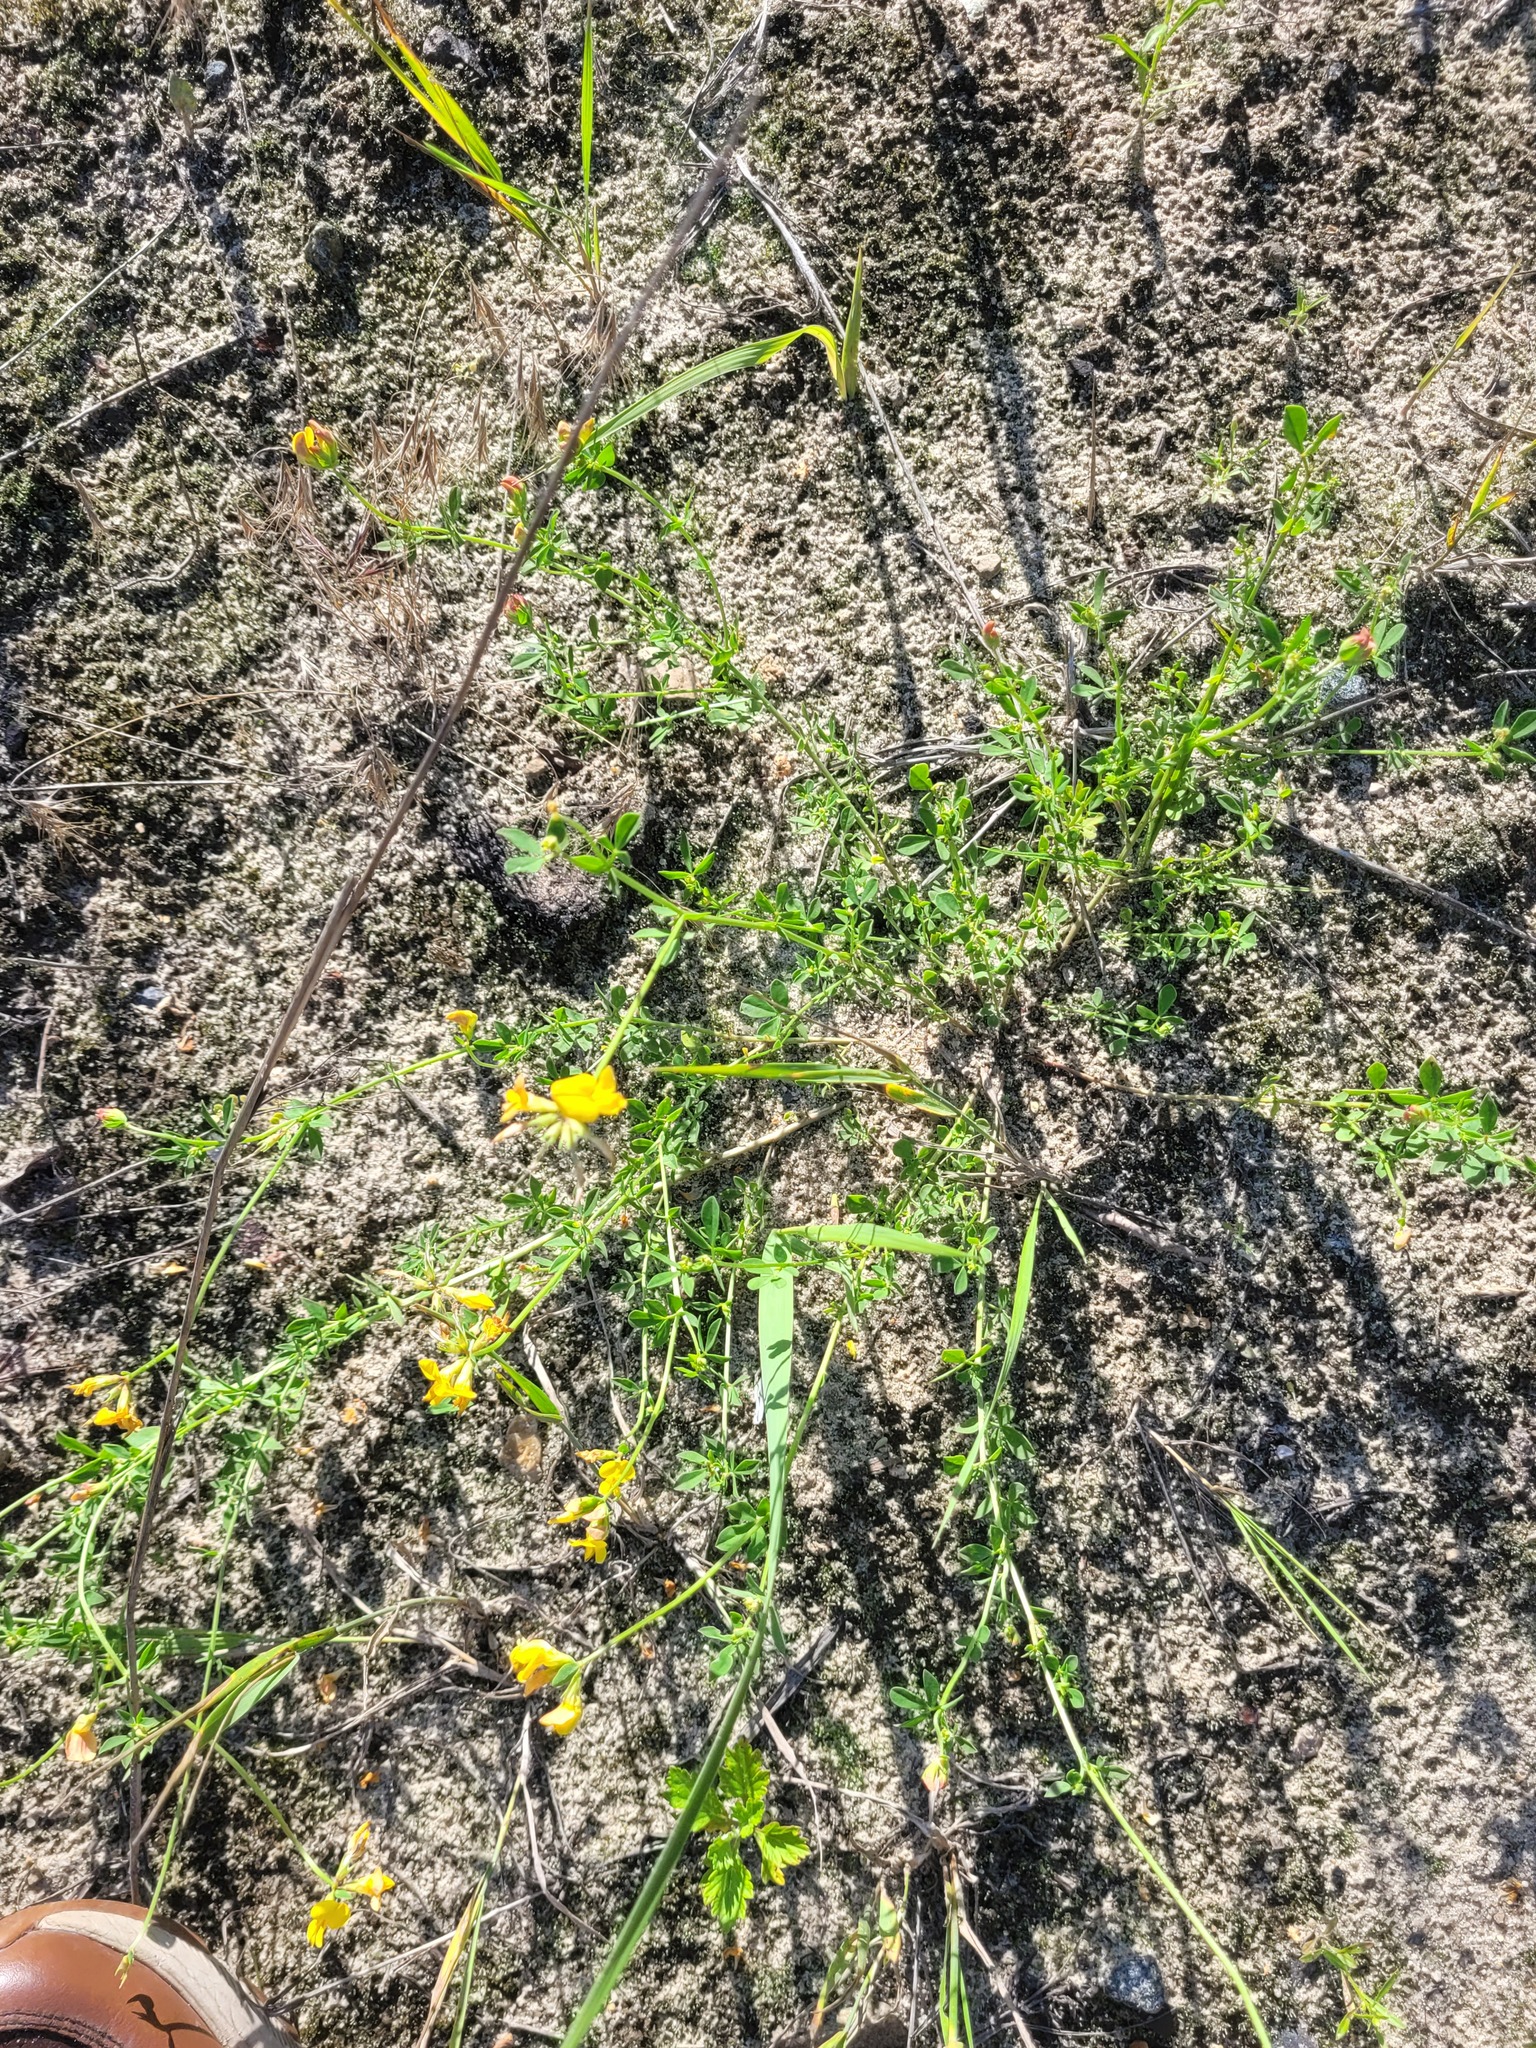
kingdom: Plantae
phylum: Tracheophyta
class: Magnoliopsida
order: Fabales
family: Fabaceae
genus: Lotus
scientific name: Lotus corniculatus
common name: Common bird's-foot-trefoil
